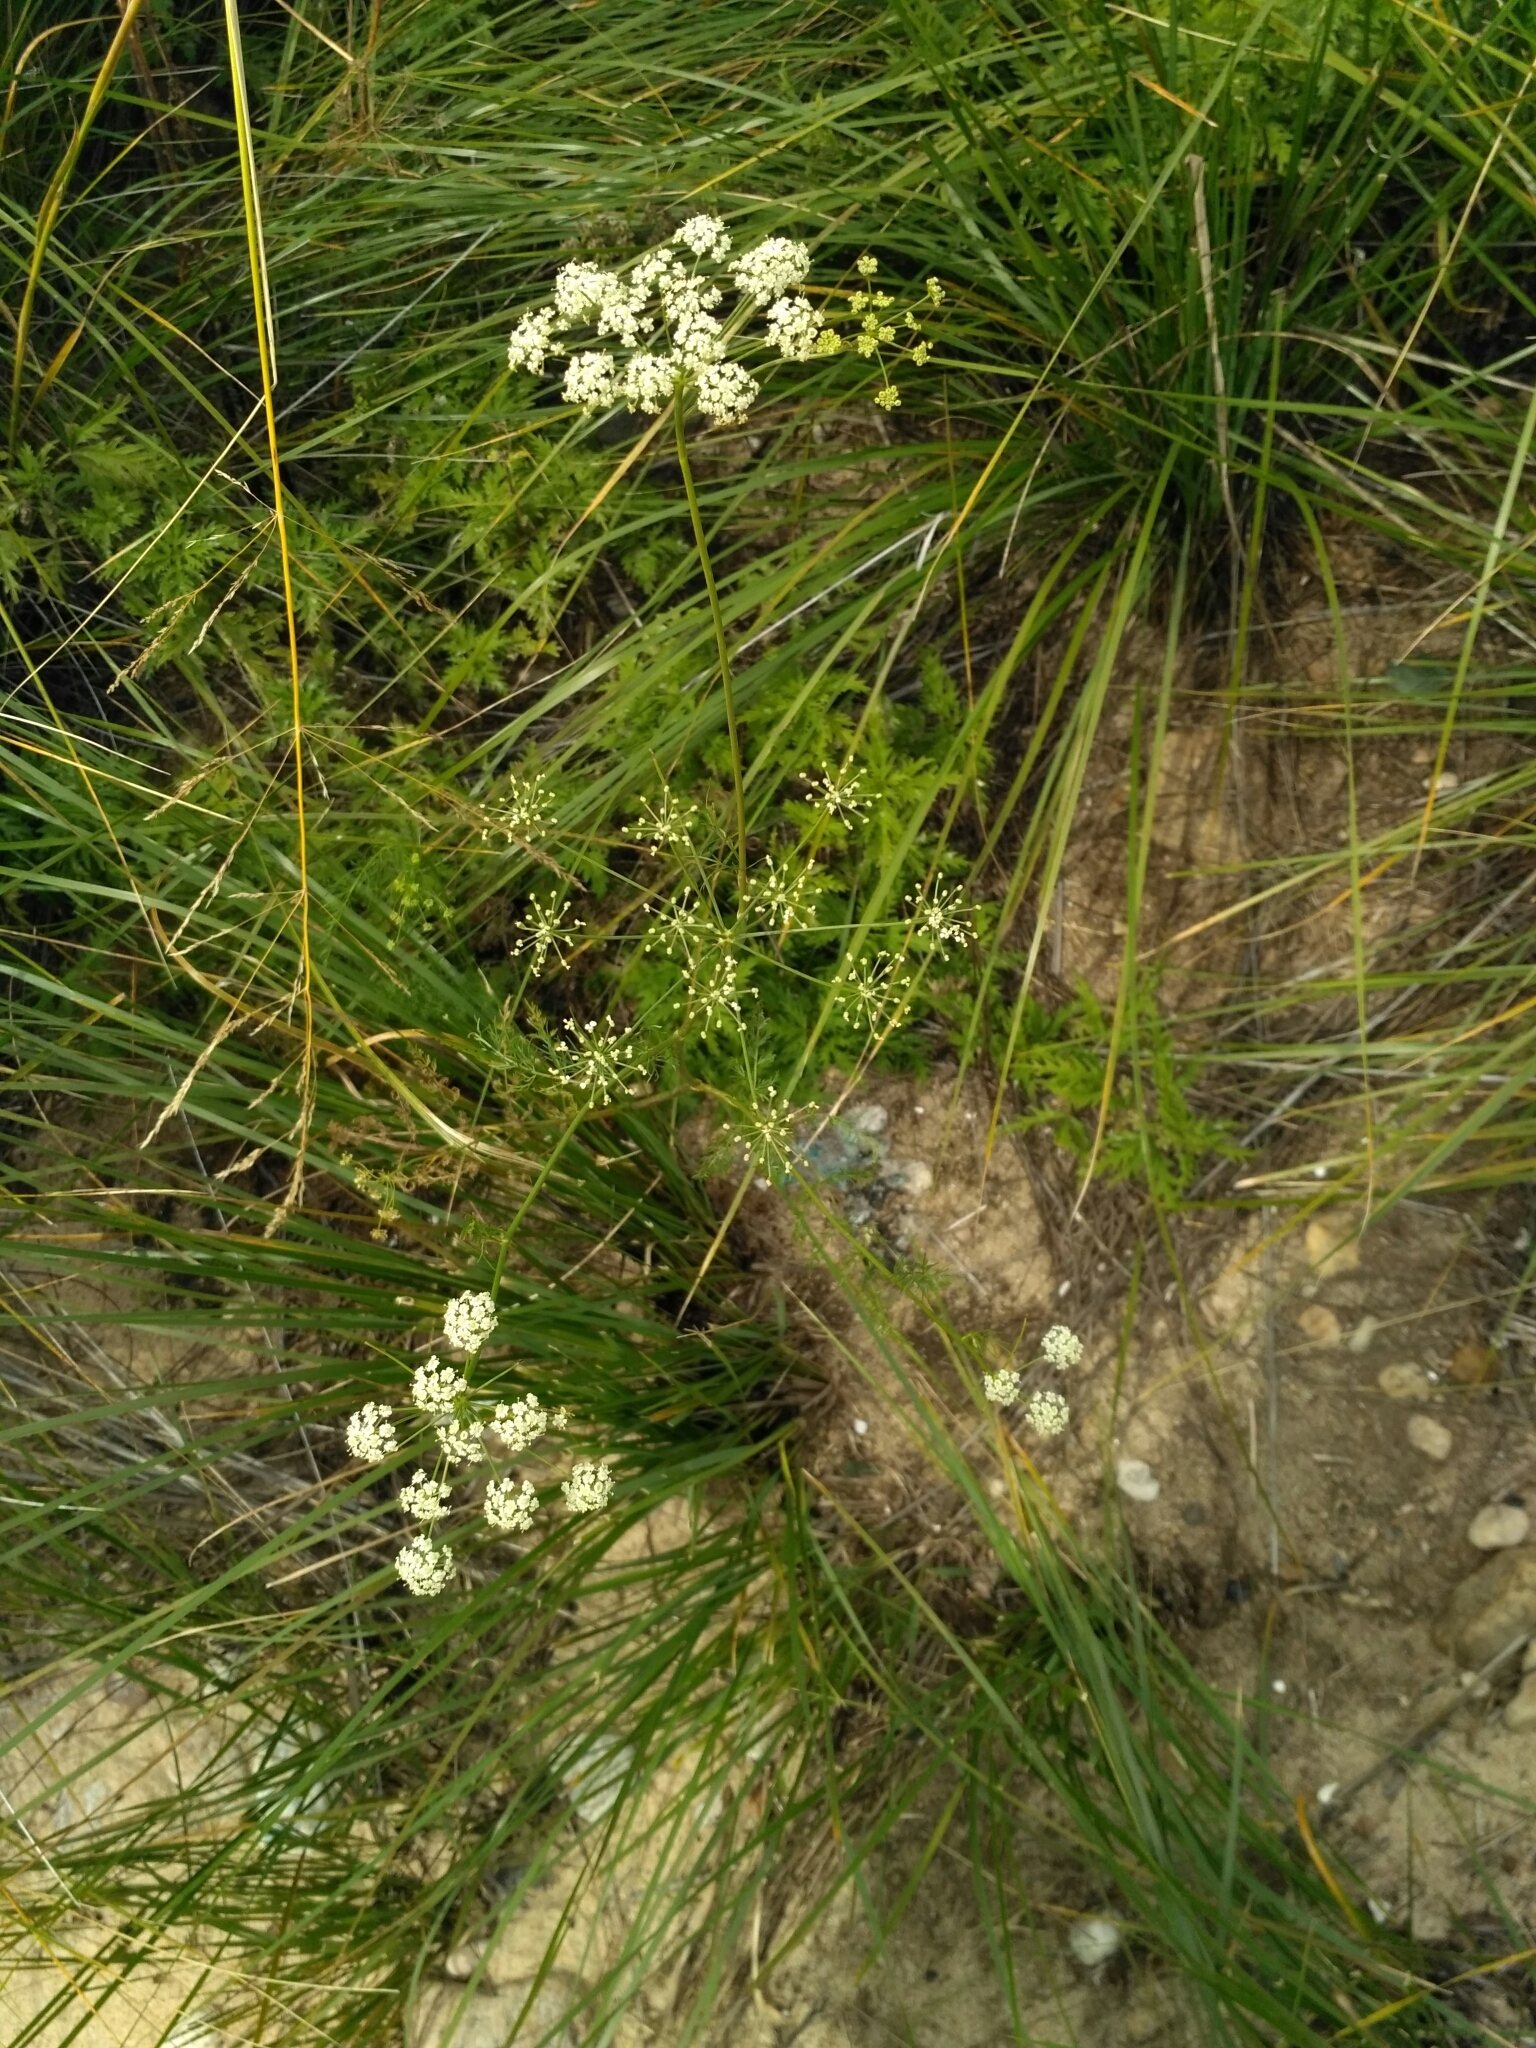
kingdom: Plantae
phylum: Tracheophyta
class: Magnoliopsida
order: Apiales
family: Apiaceae
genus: Carum
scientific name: Carum buriaticum
